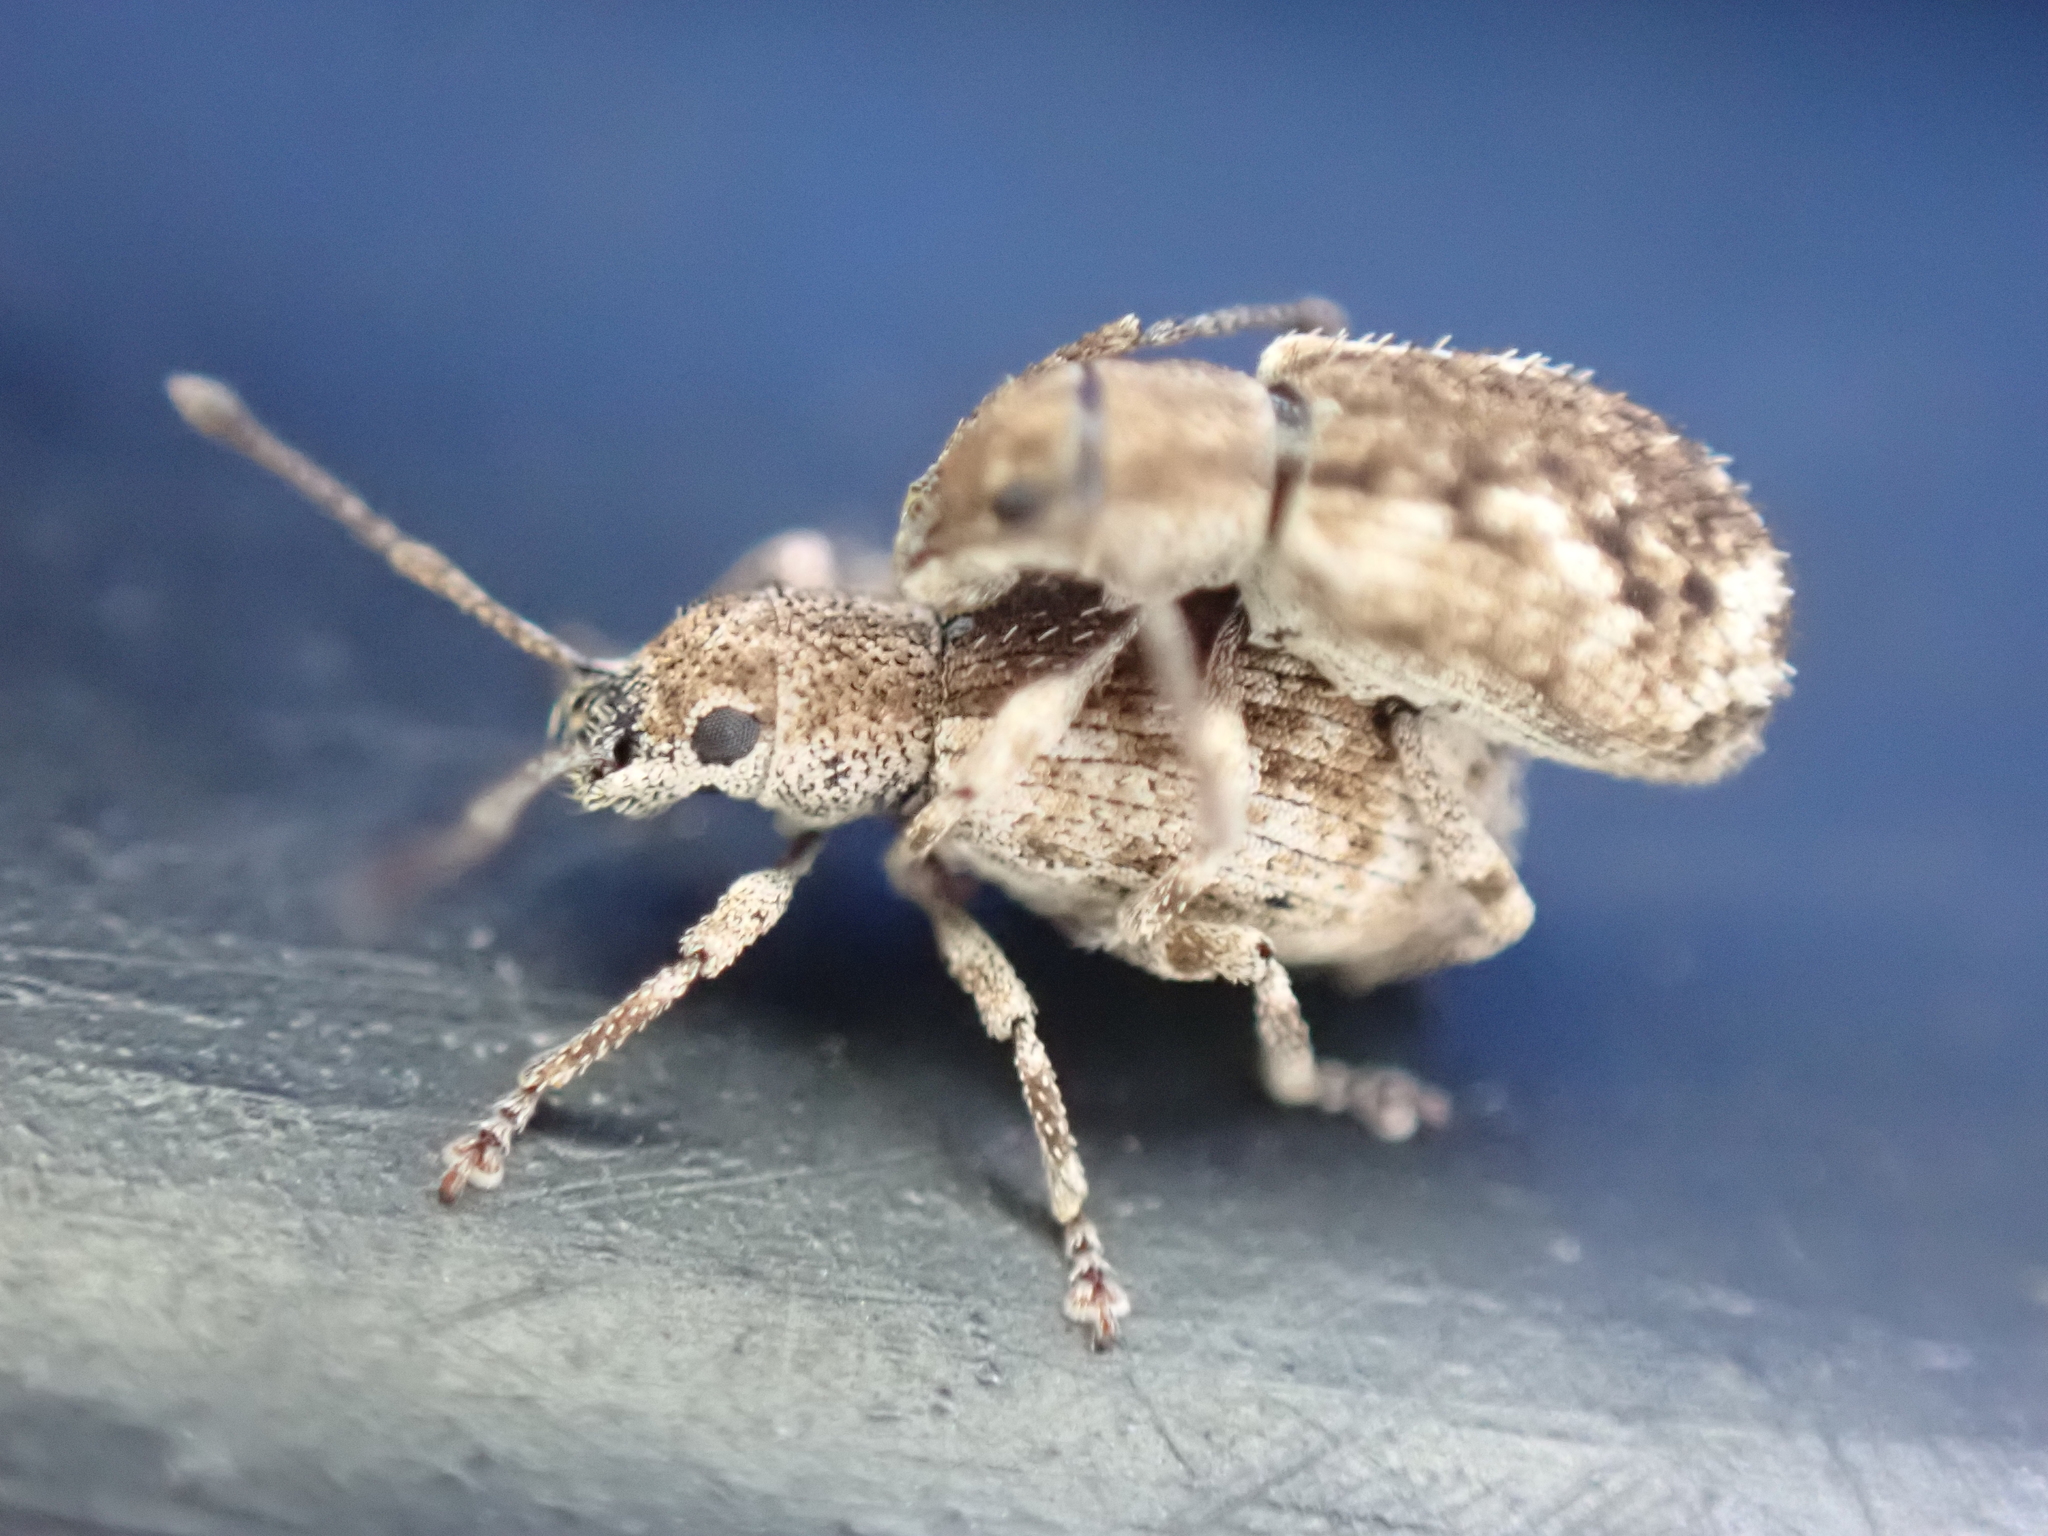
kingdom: Animalia
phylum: Arthropoda
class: Insecta
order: Coleoptera
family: Curculionidae
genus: Pseudoedophrys
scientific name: Pseudoedophrys hilleri
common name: Weevil
